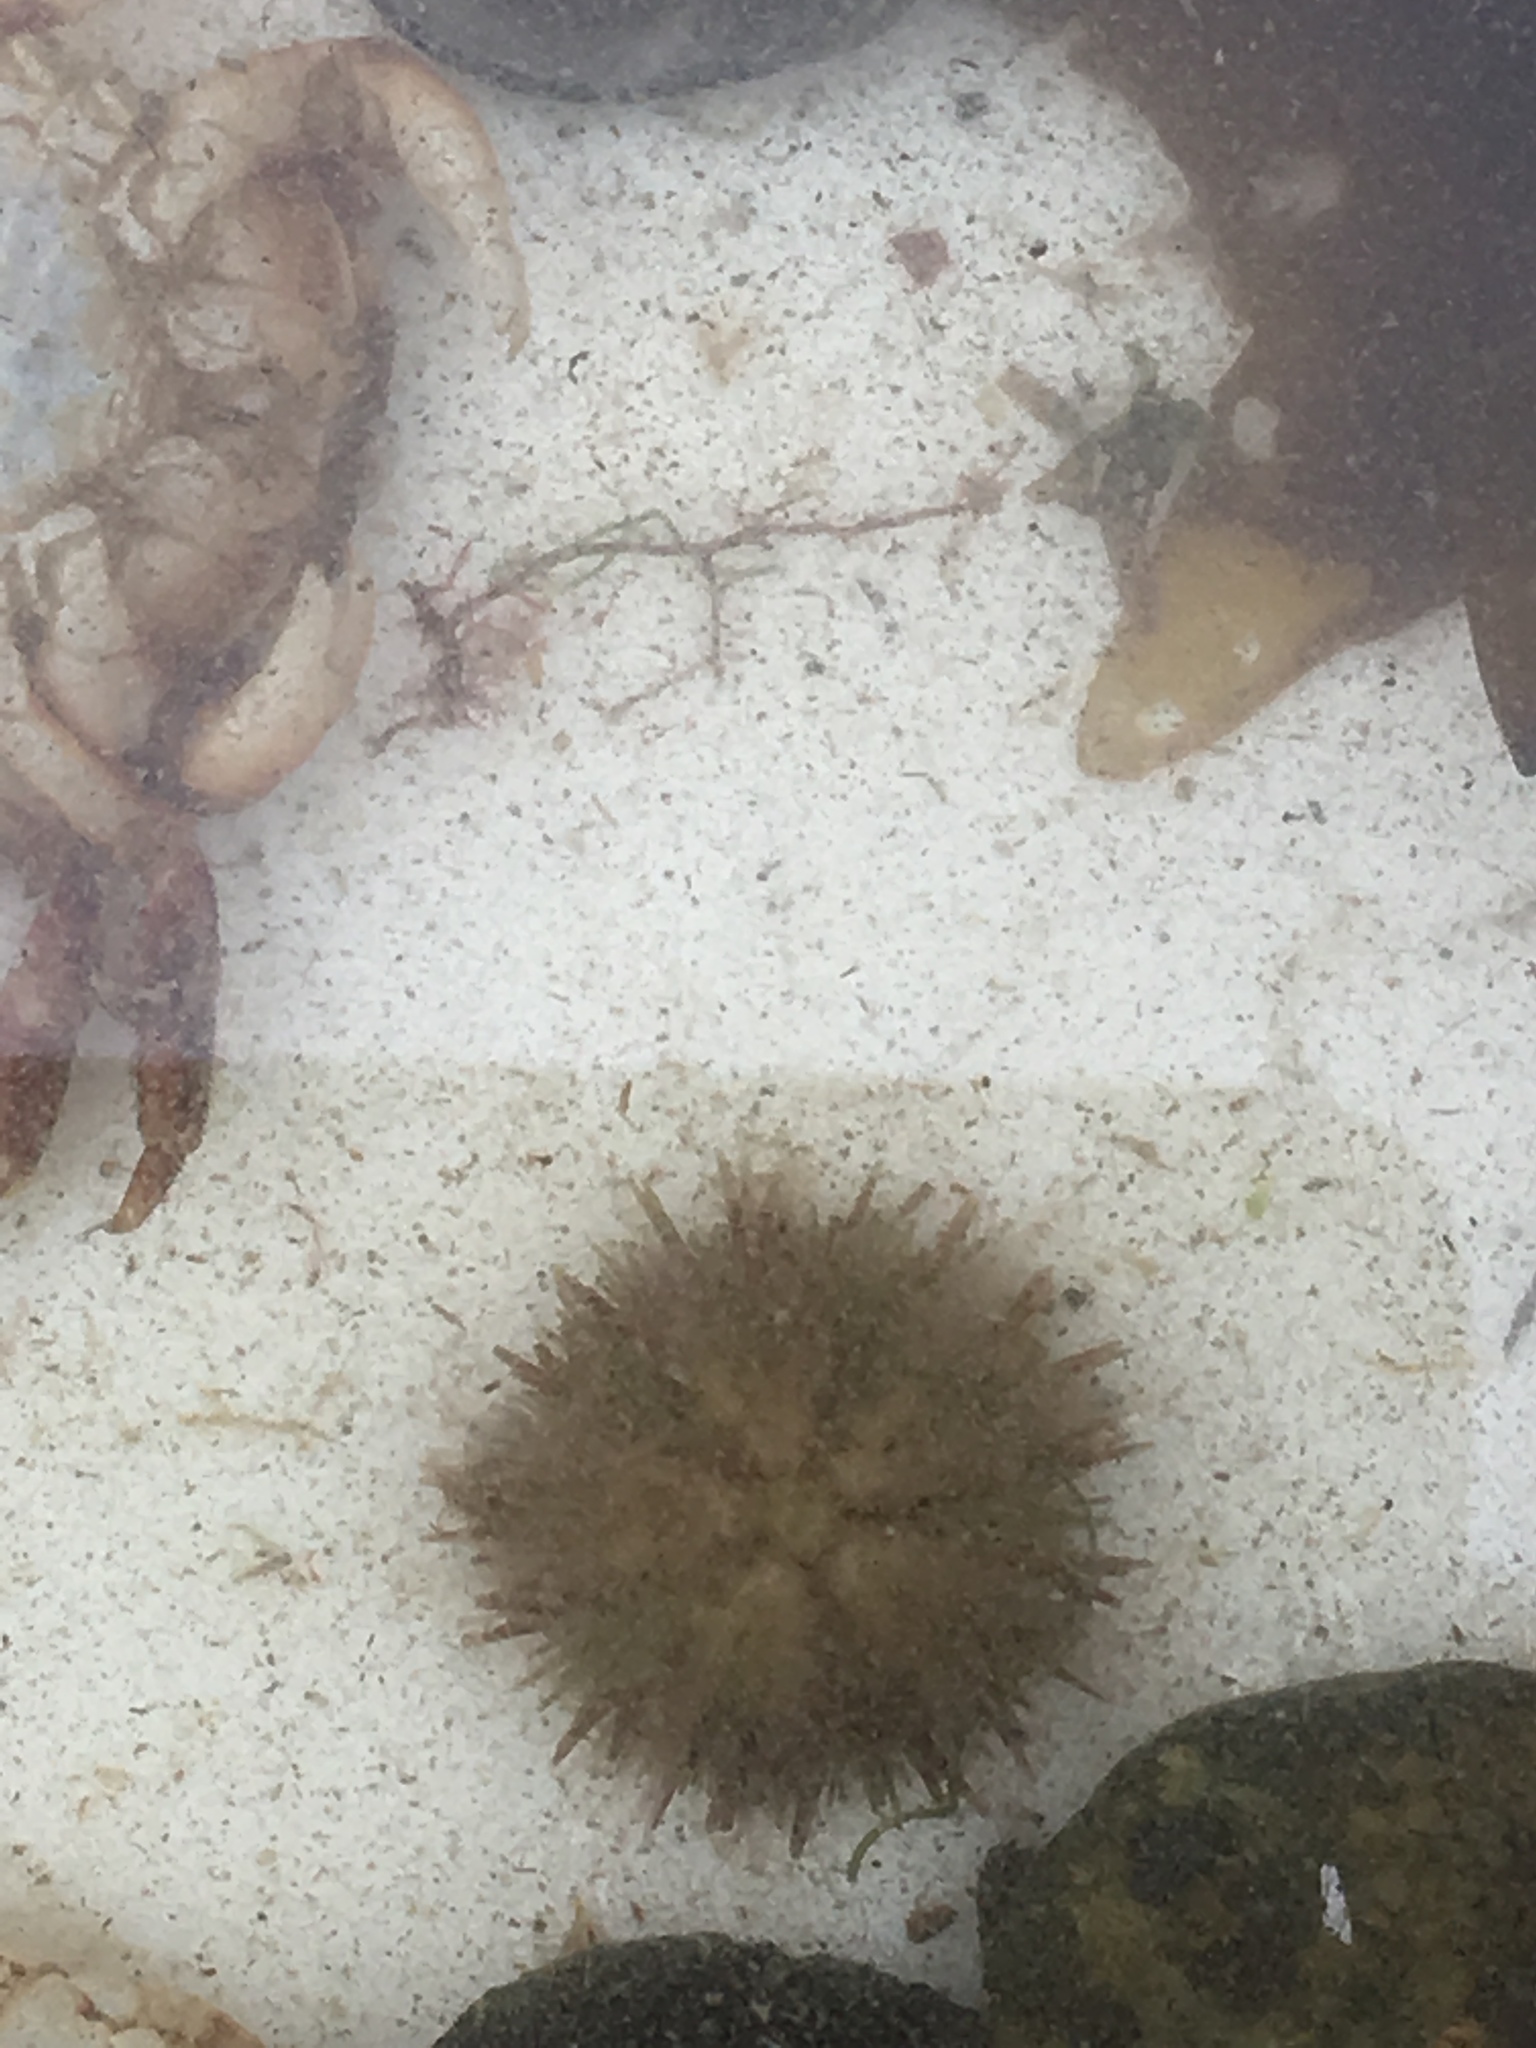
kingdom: Animalia
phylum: Echinodermata
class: Echinoidea
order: Camarodonta
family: Strongylocentrotidae
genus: Strongylocentrotus
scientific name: Strongylocentrotus droebachiensis
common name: Northern sea urchin
